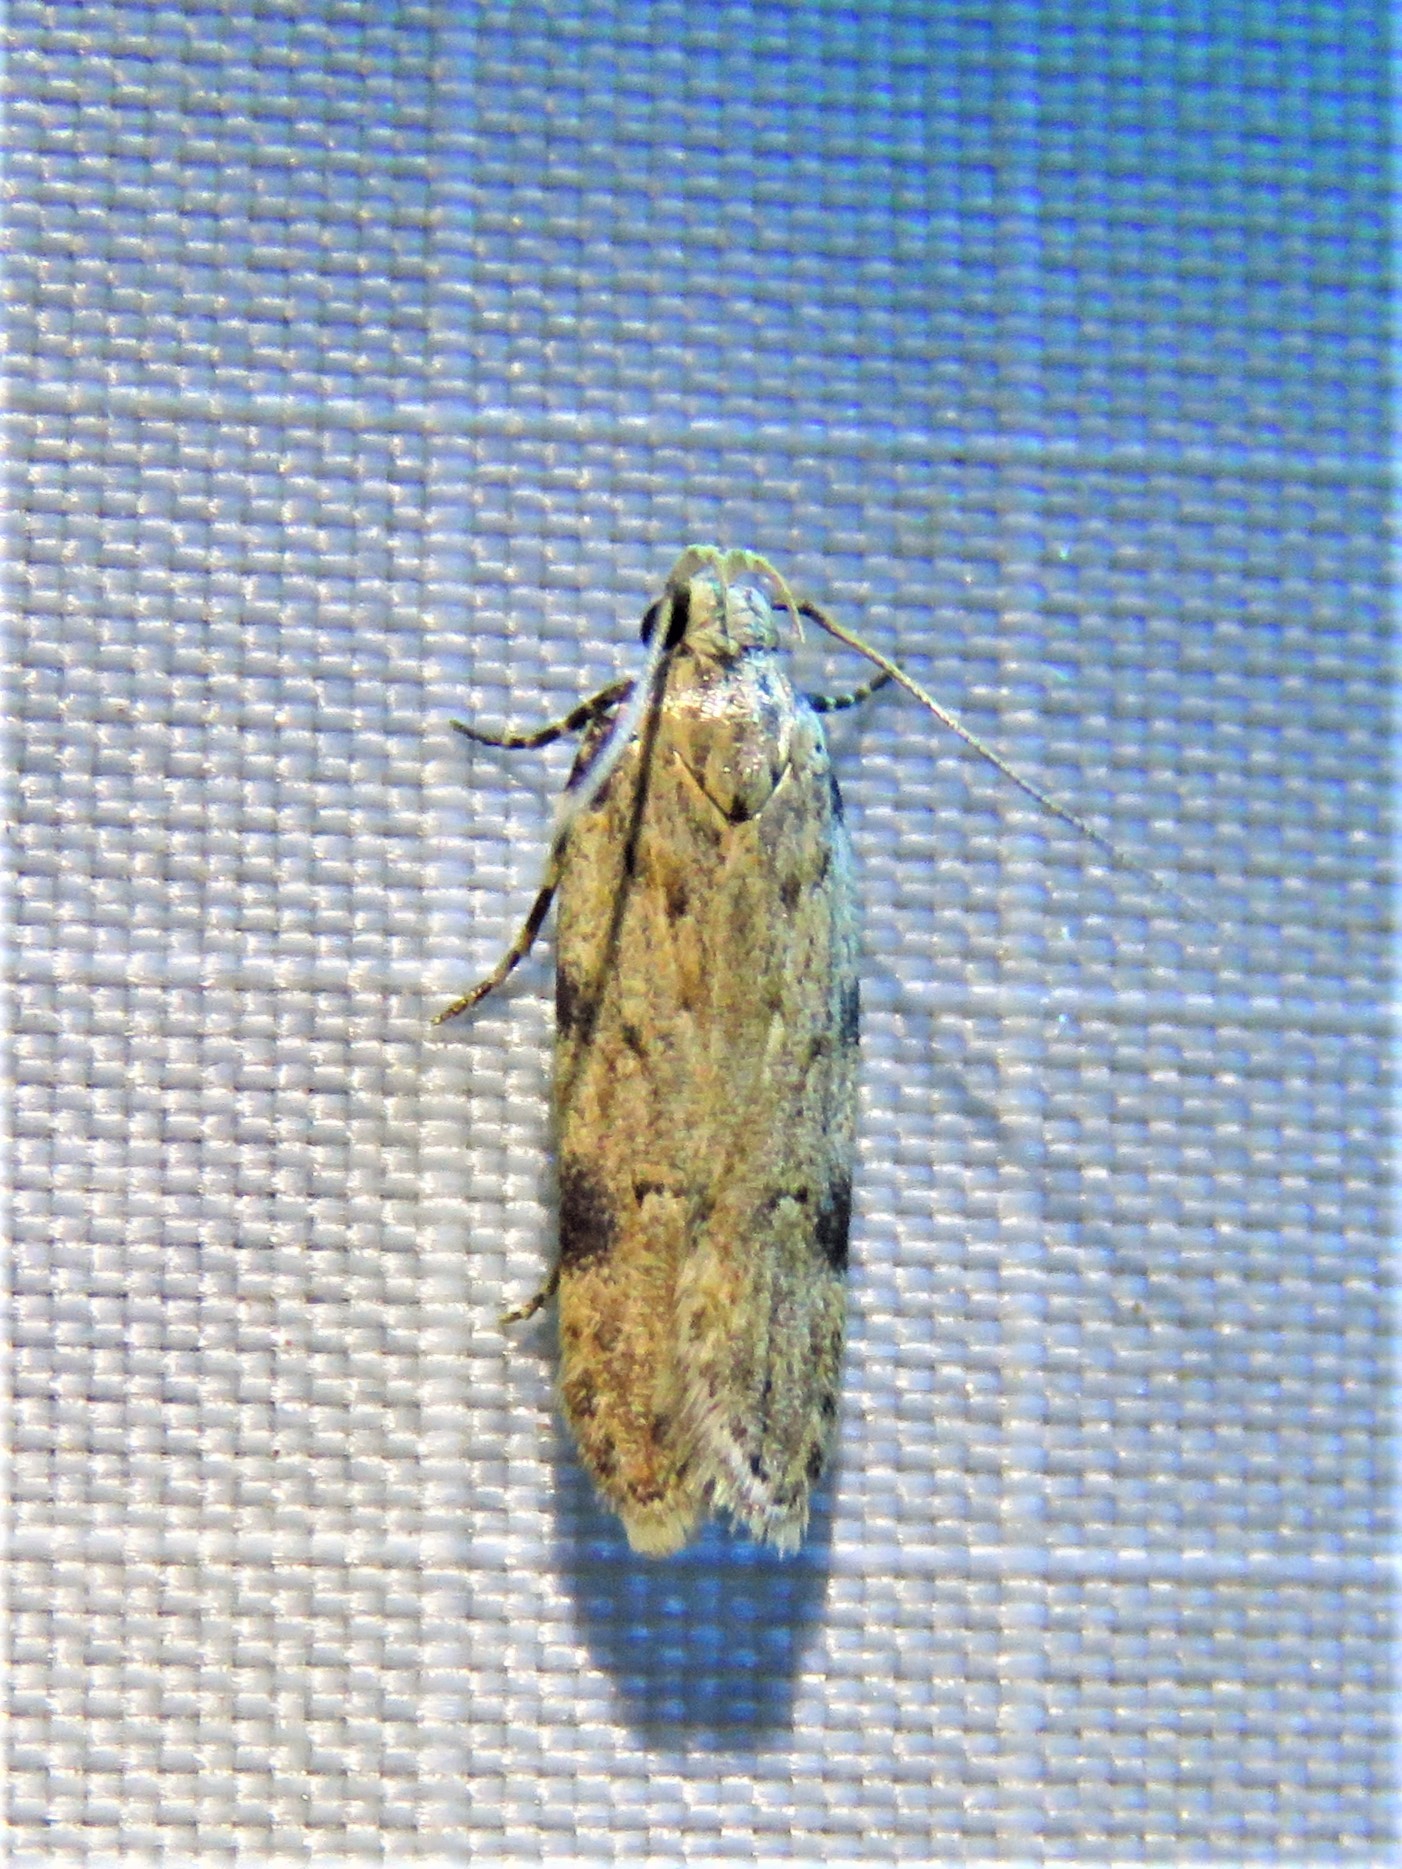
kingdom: Animalia
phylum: Arthropoda
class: Insecta
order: Lepidoptera
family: Gelechiidae
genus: Friseria
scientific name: Friseria cockerelli
